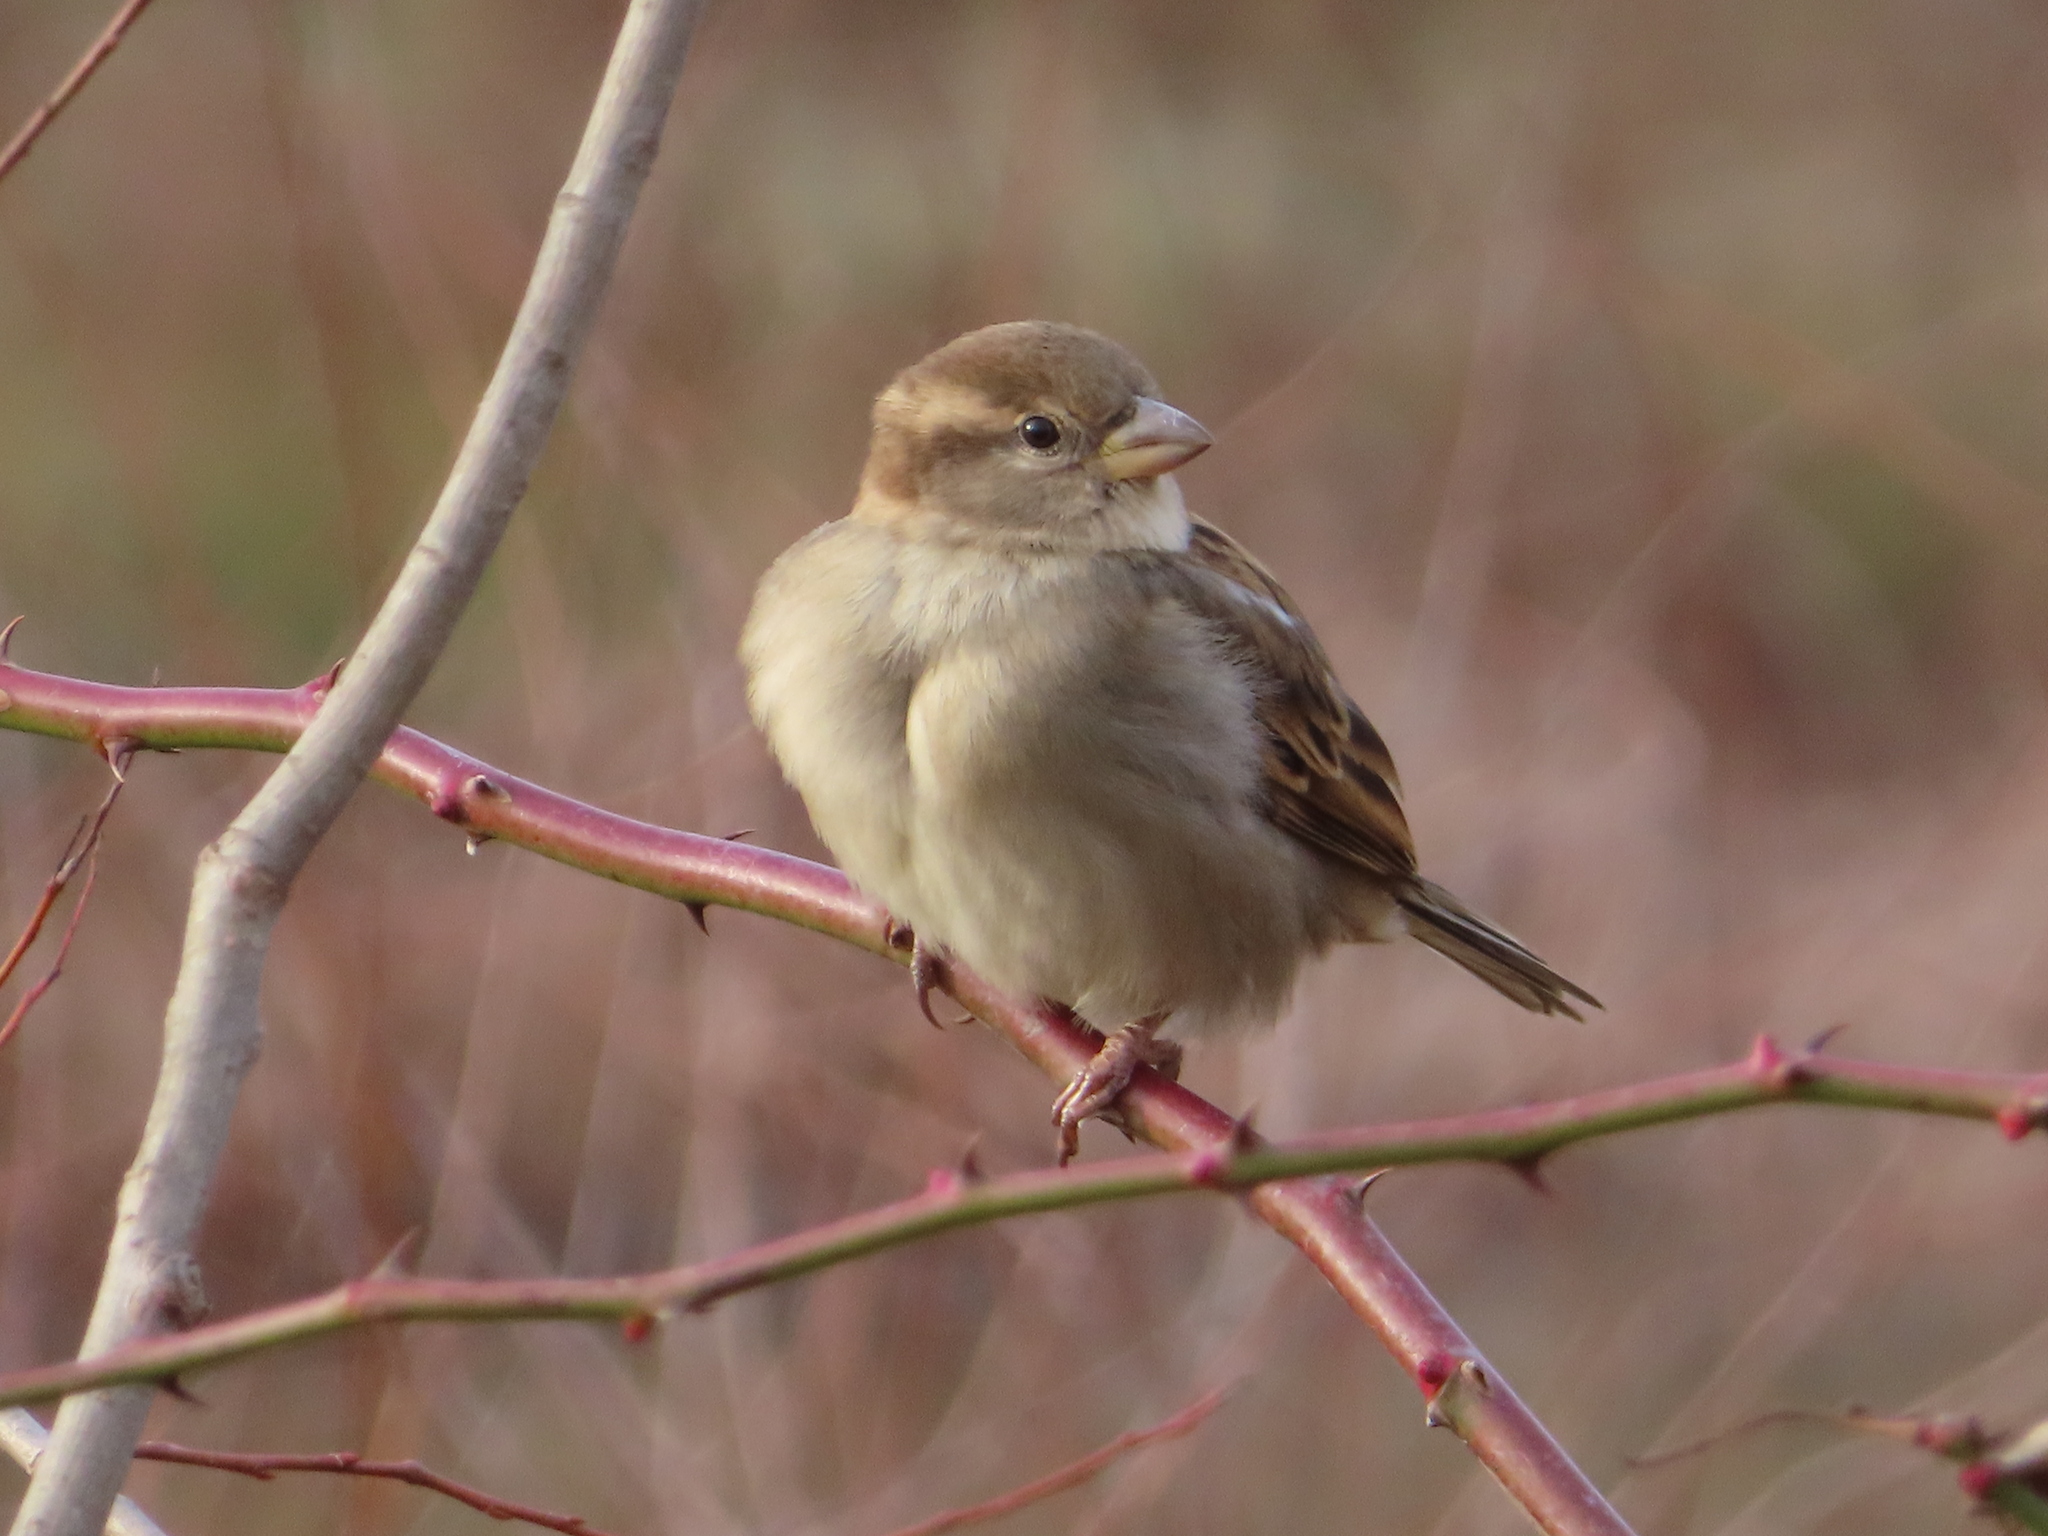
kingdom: Animalia
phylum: Chordata
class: Aves
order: Passeriformes
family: Passeridae
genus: Passer
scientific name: Passer domesticus
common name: House sparrow
